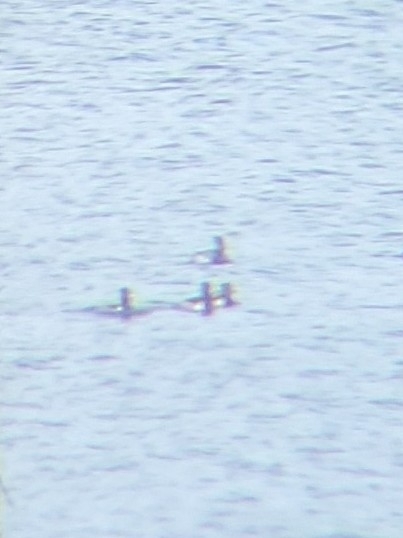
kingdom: Animalia
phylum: Chordata
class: Aves
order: Anseriformes
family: Anatidae
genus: Aythya
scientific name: Aythya collaris
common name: Ring-necked duck
